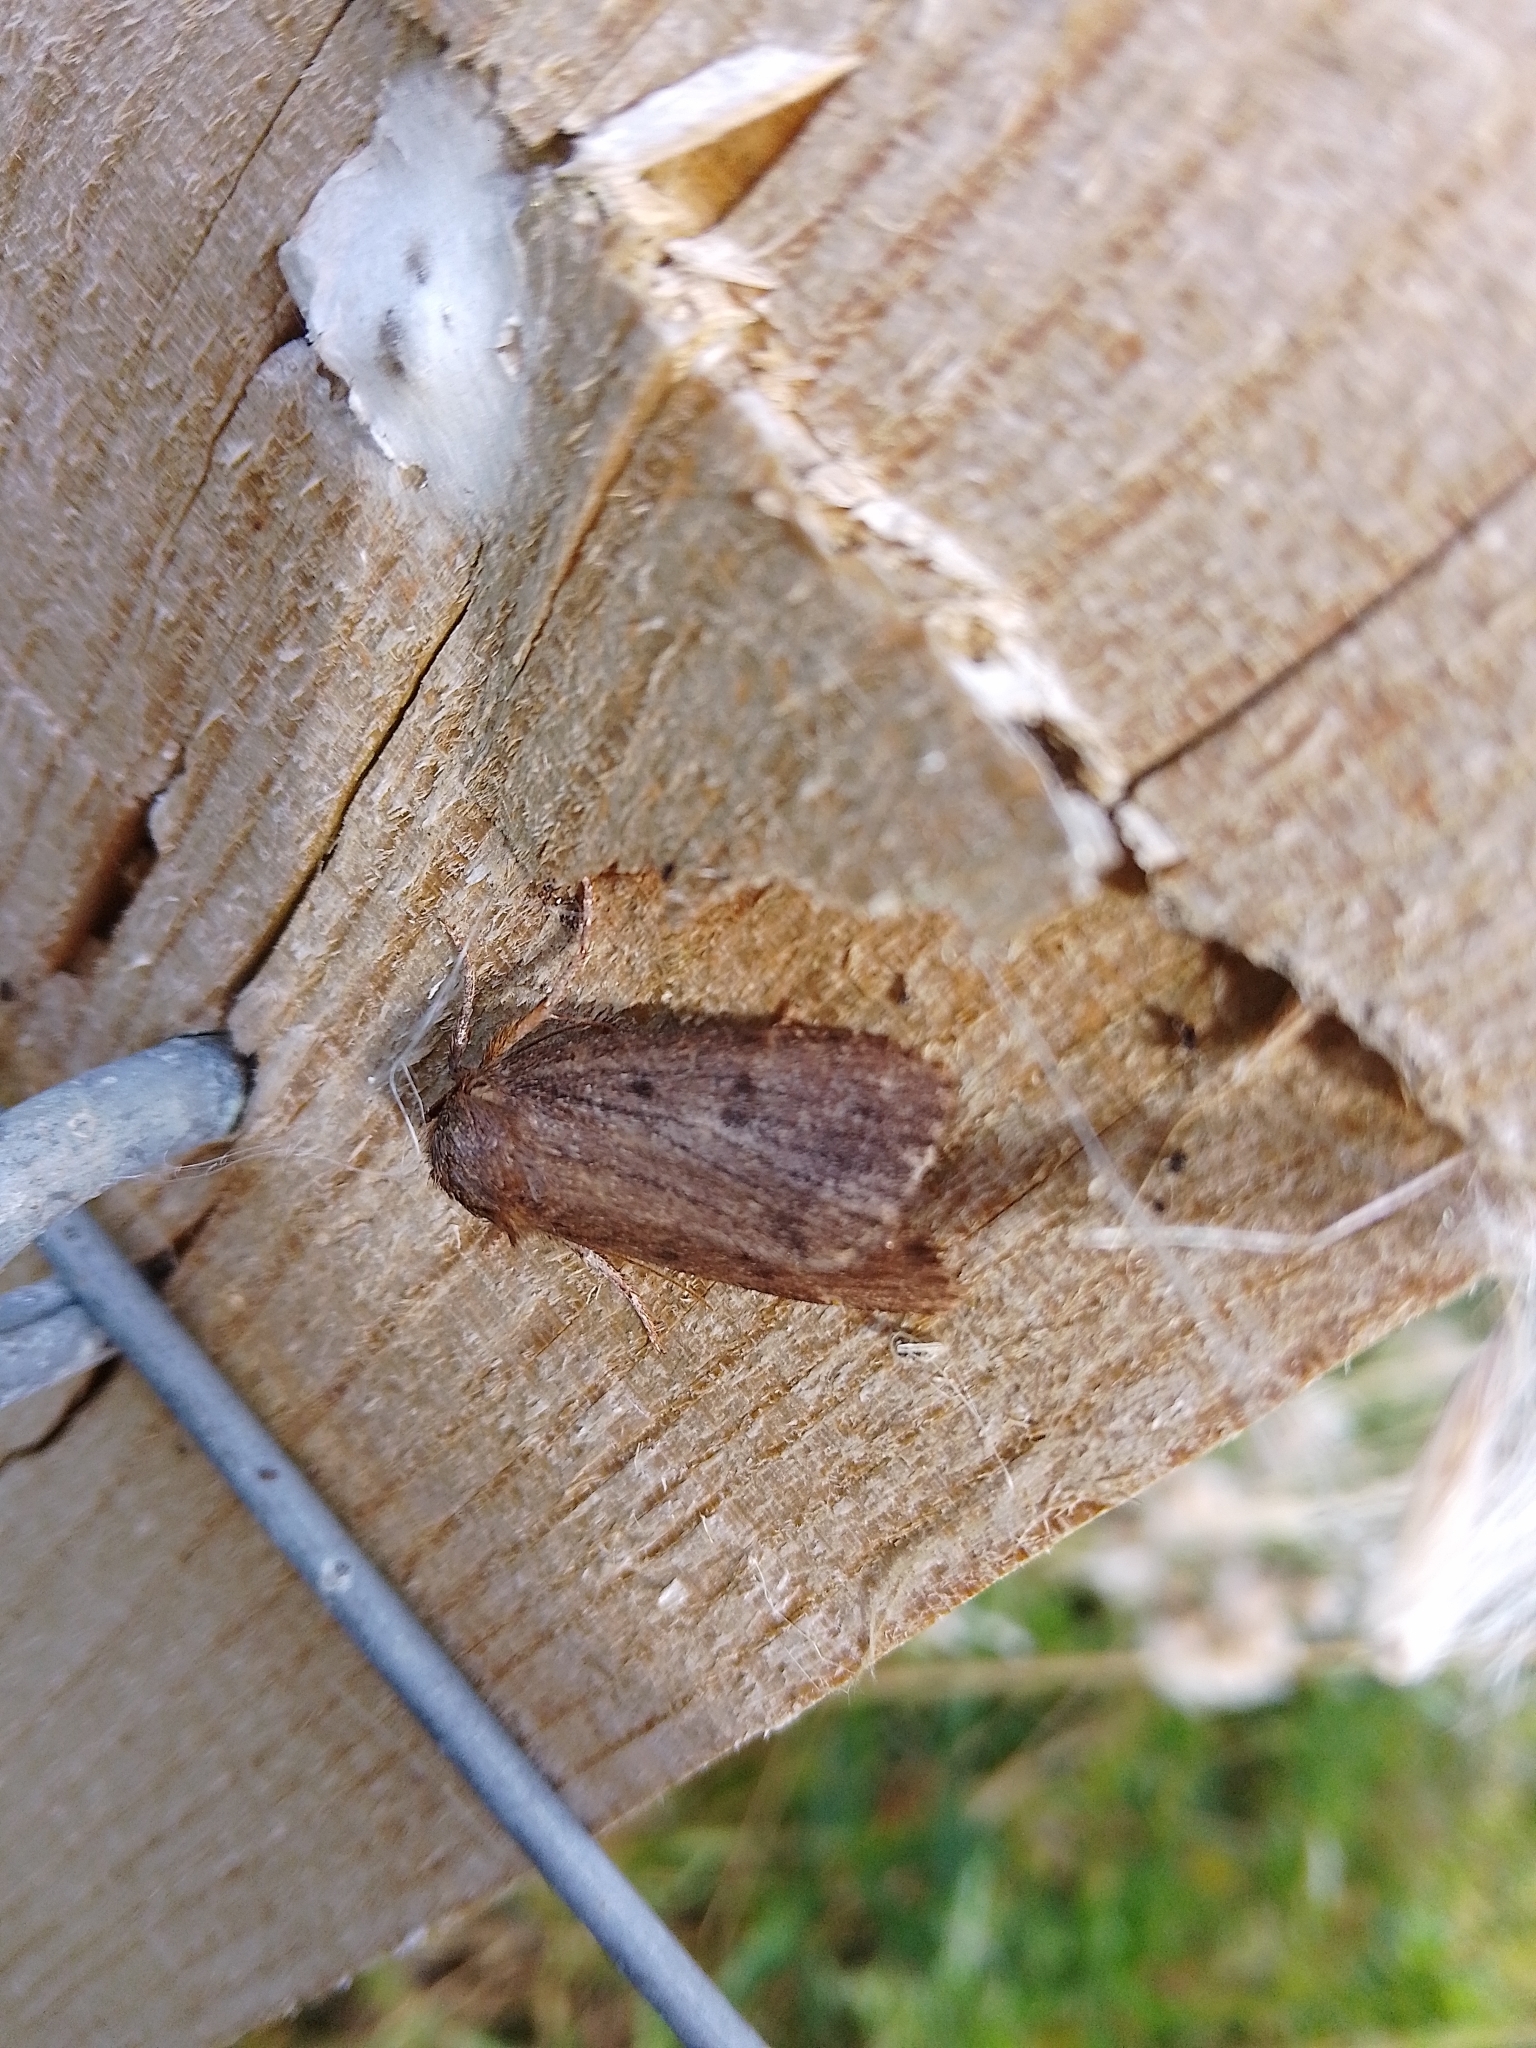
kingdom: Animalia
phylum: Arthropoda
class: Insecta
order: Lepidoptera
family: Noctuidae
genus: Amphipyra
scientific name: Amphipyra tragopoginis
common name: Mouse moth
